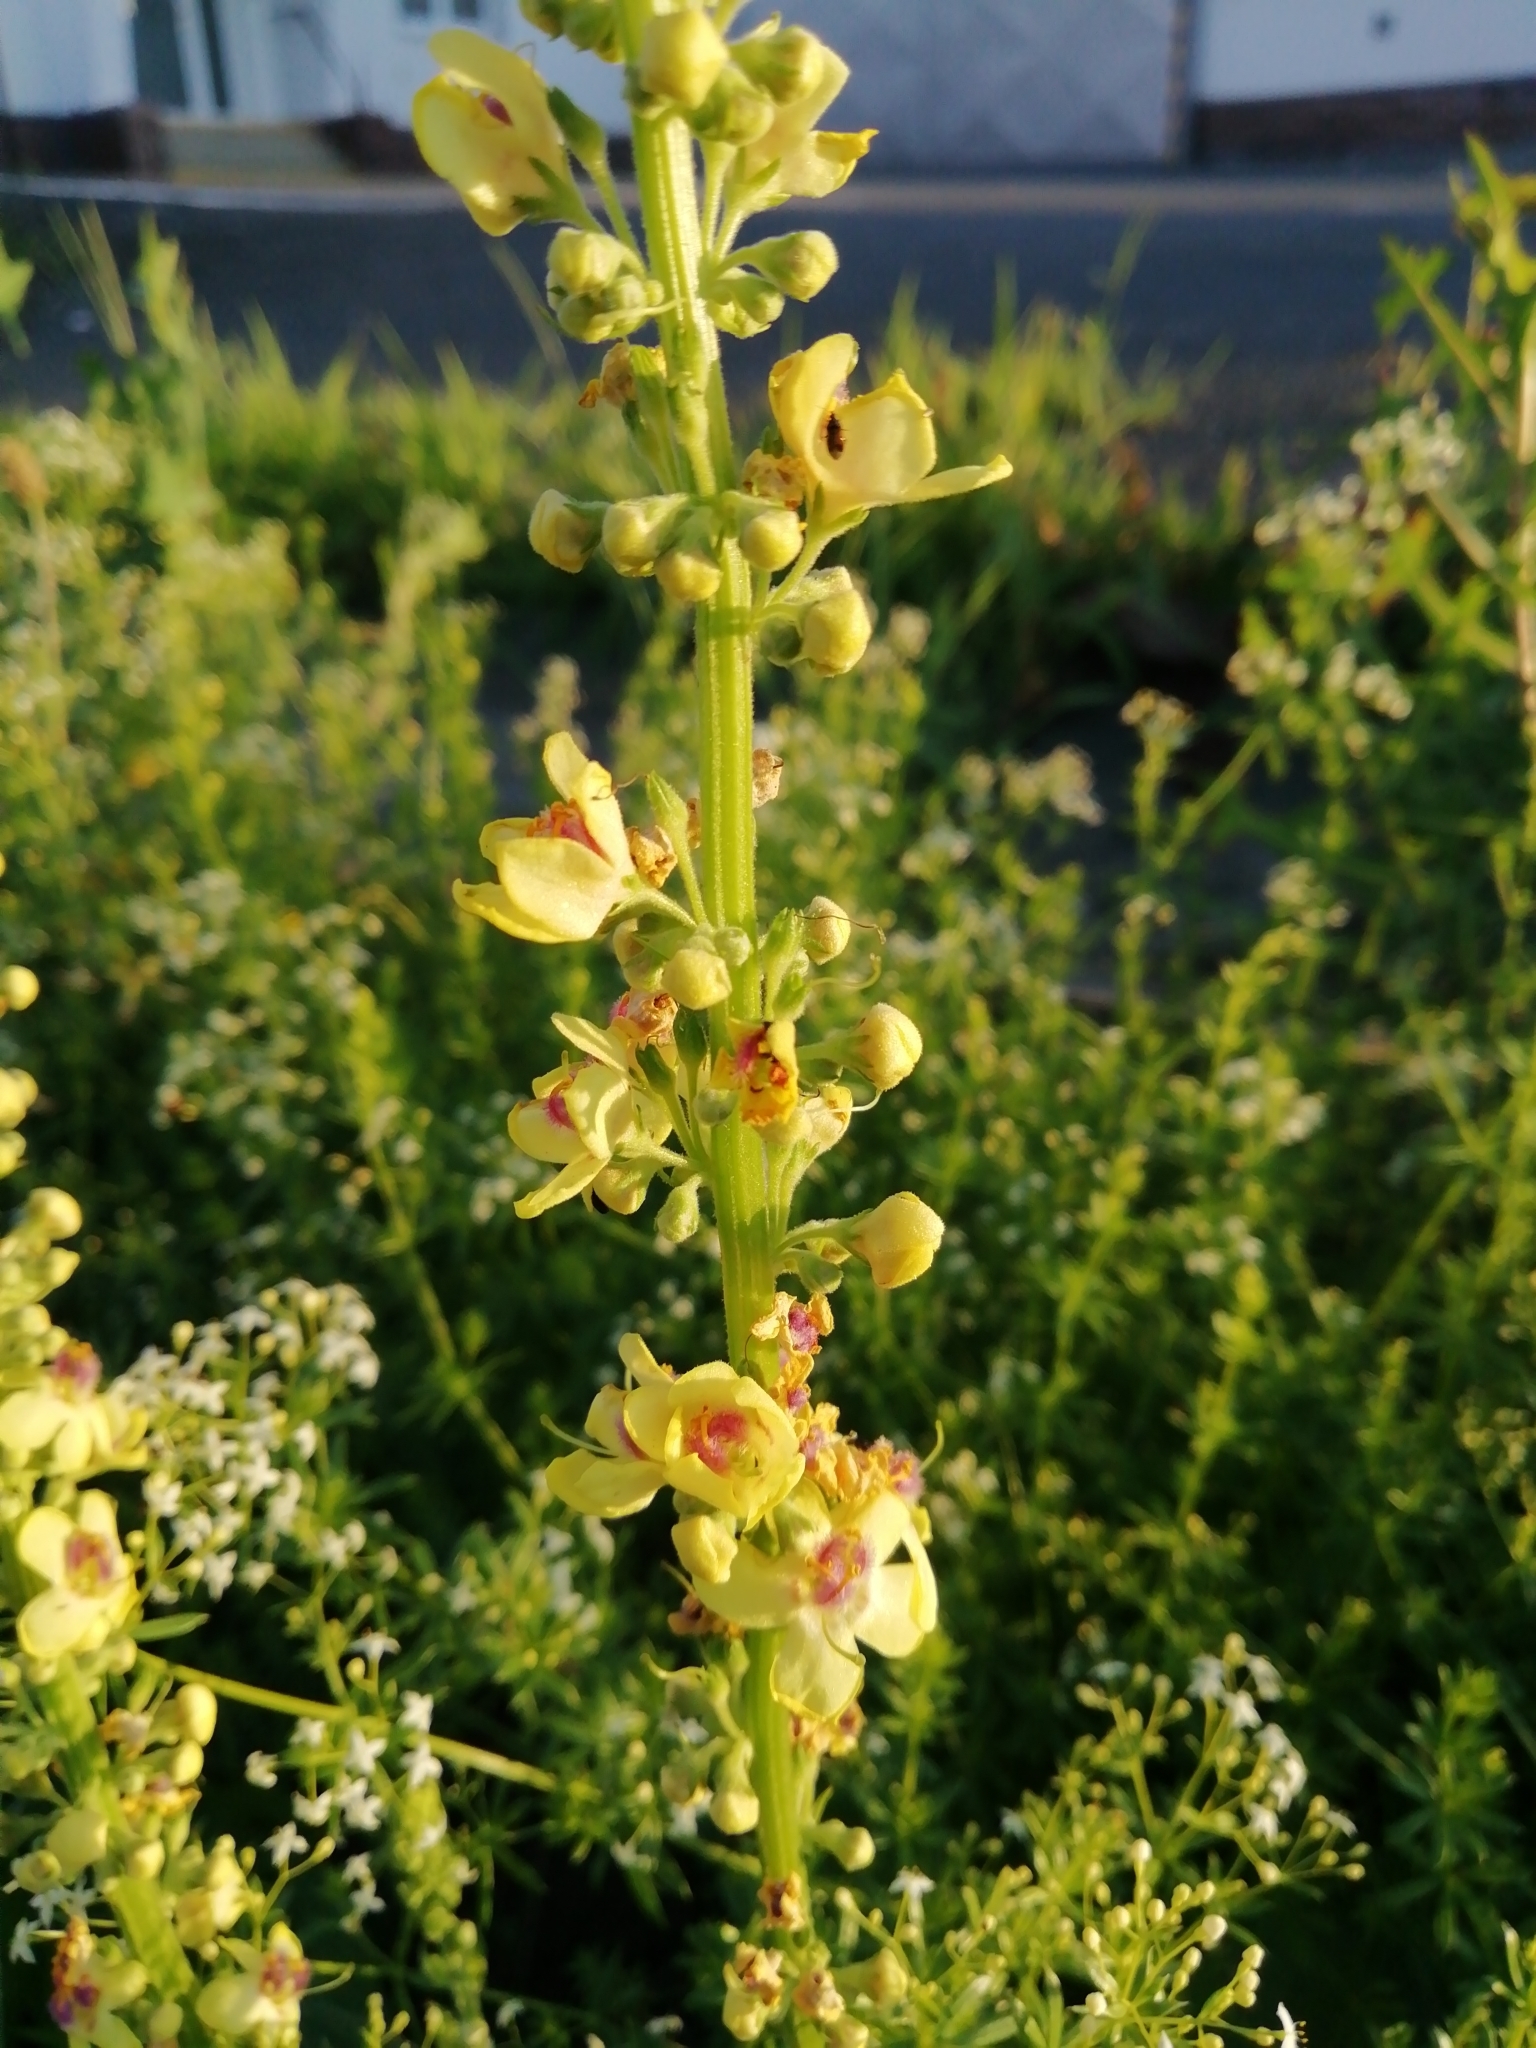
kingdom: Plantae
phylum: Tracheophyta
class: Magnoliopsida
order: Lamiales
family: Scrophulariaceae
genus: Verbascum
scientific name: Verbascum nigrum
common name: Dark mullein
